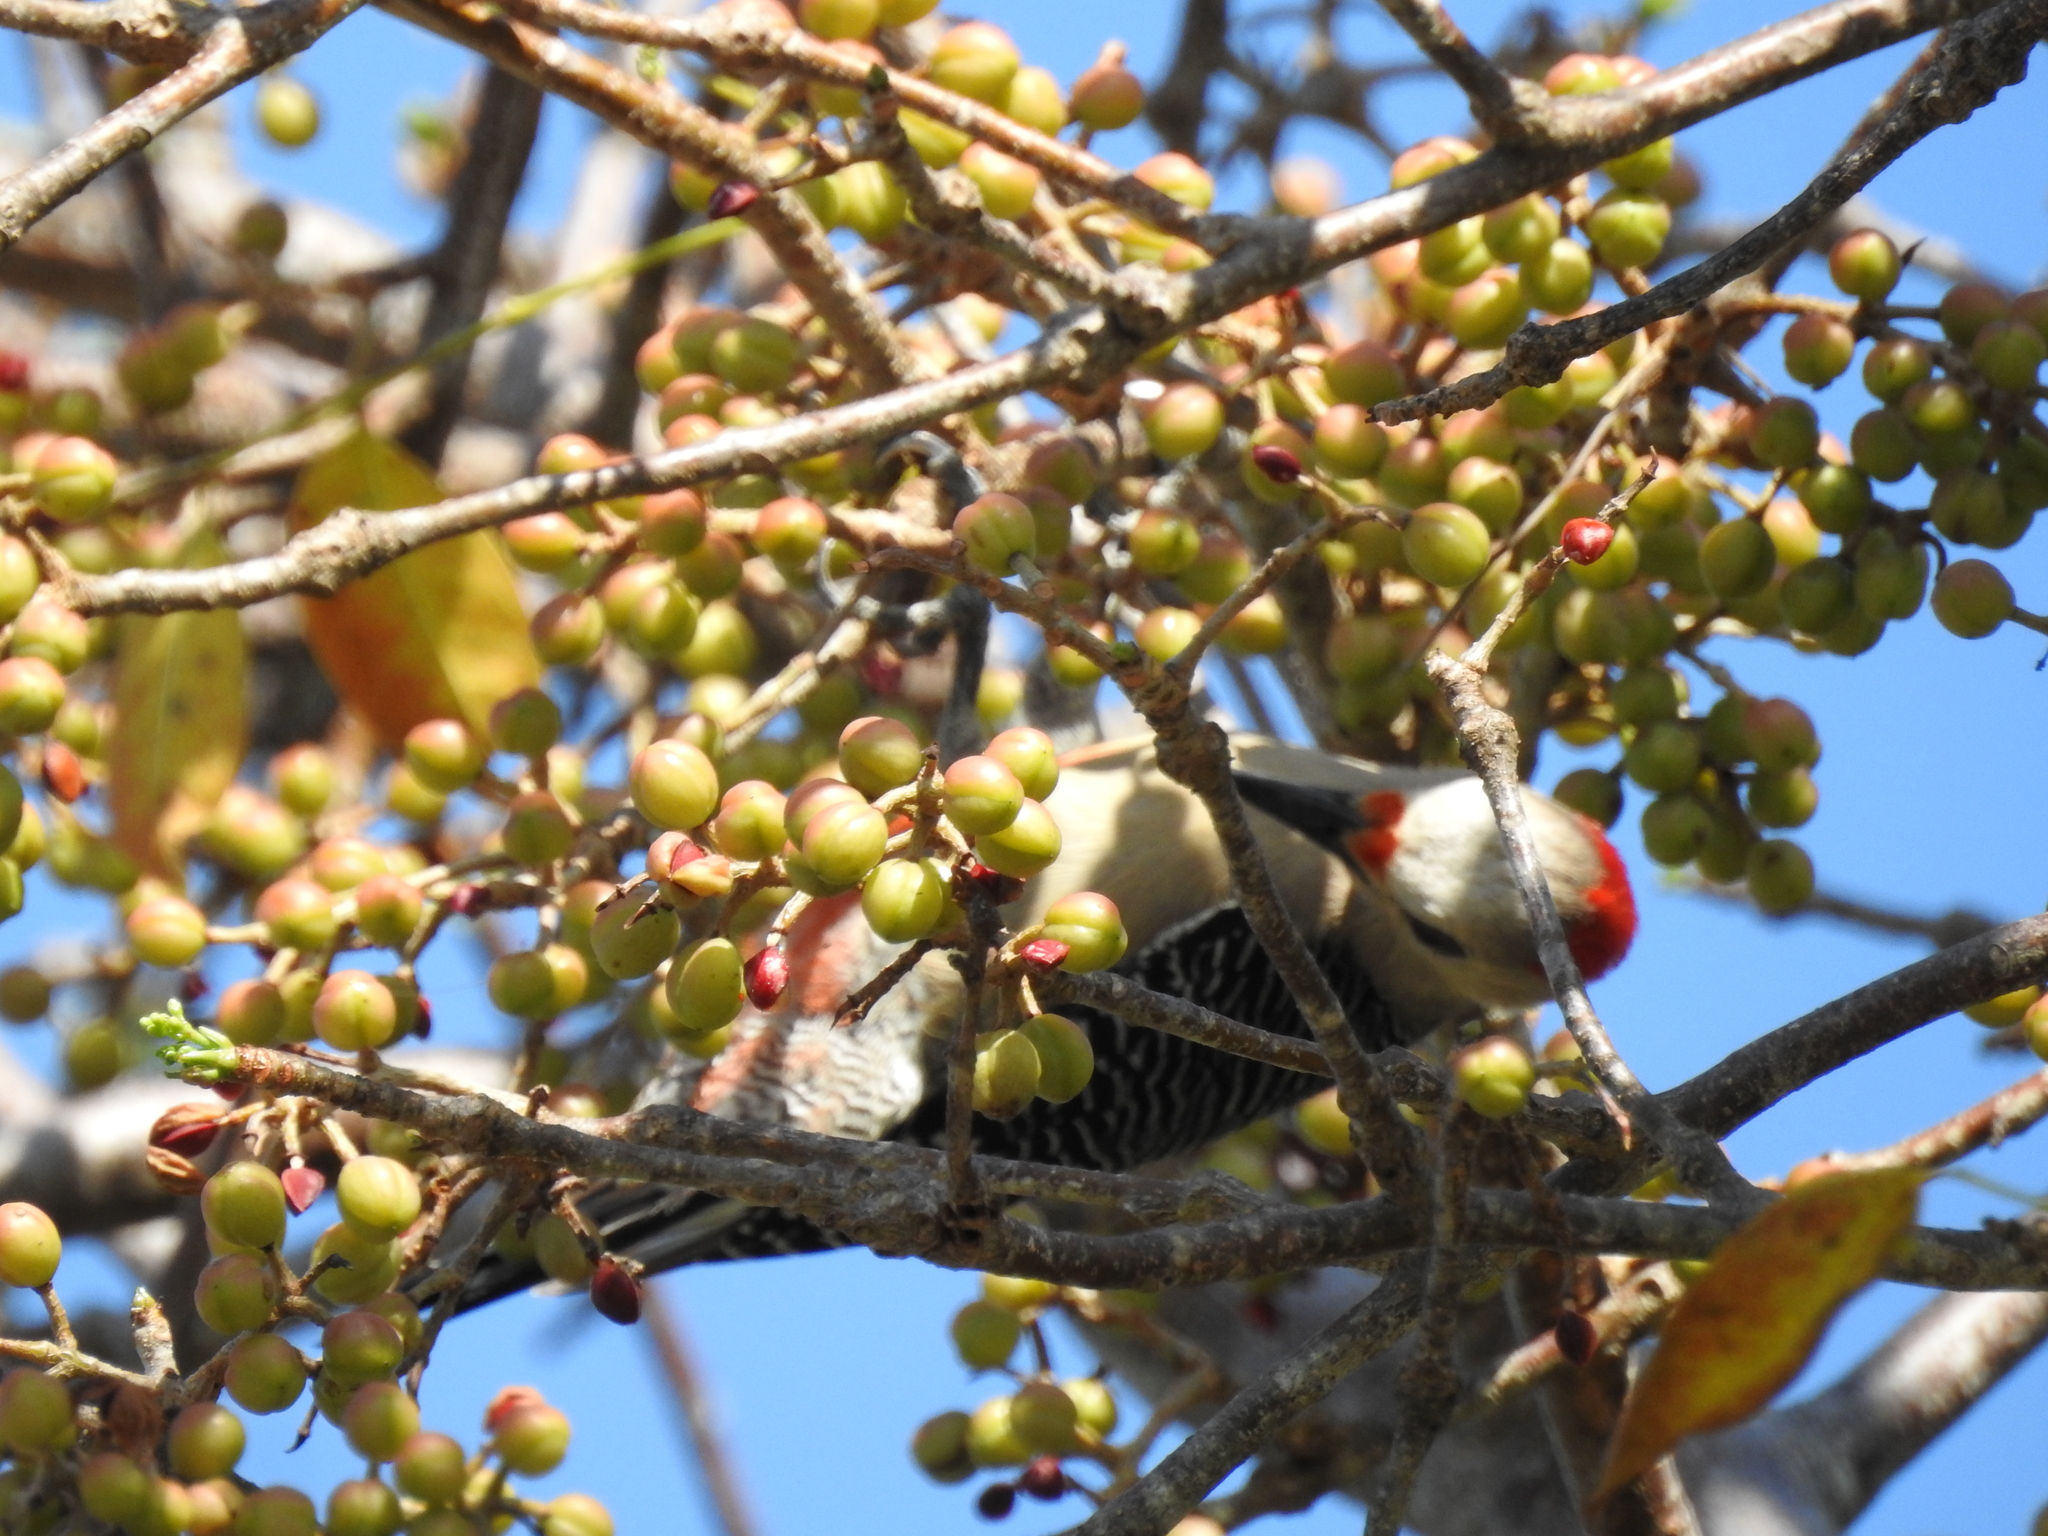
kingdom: Animalia
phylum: Chordata
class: Aves
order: Piciformes
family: Picidae
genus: Melanerpes
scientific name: Melanerpes santacruzi
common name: Velasquez's woodpecker
